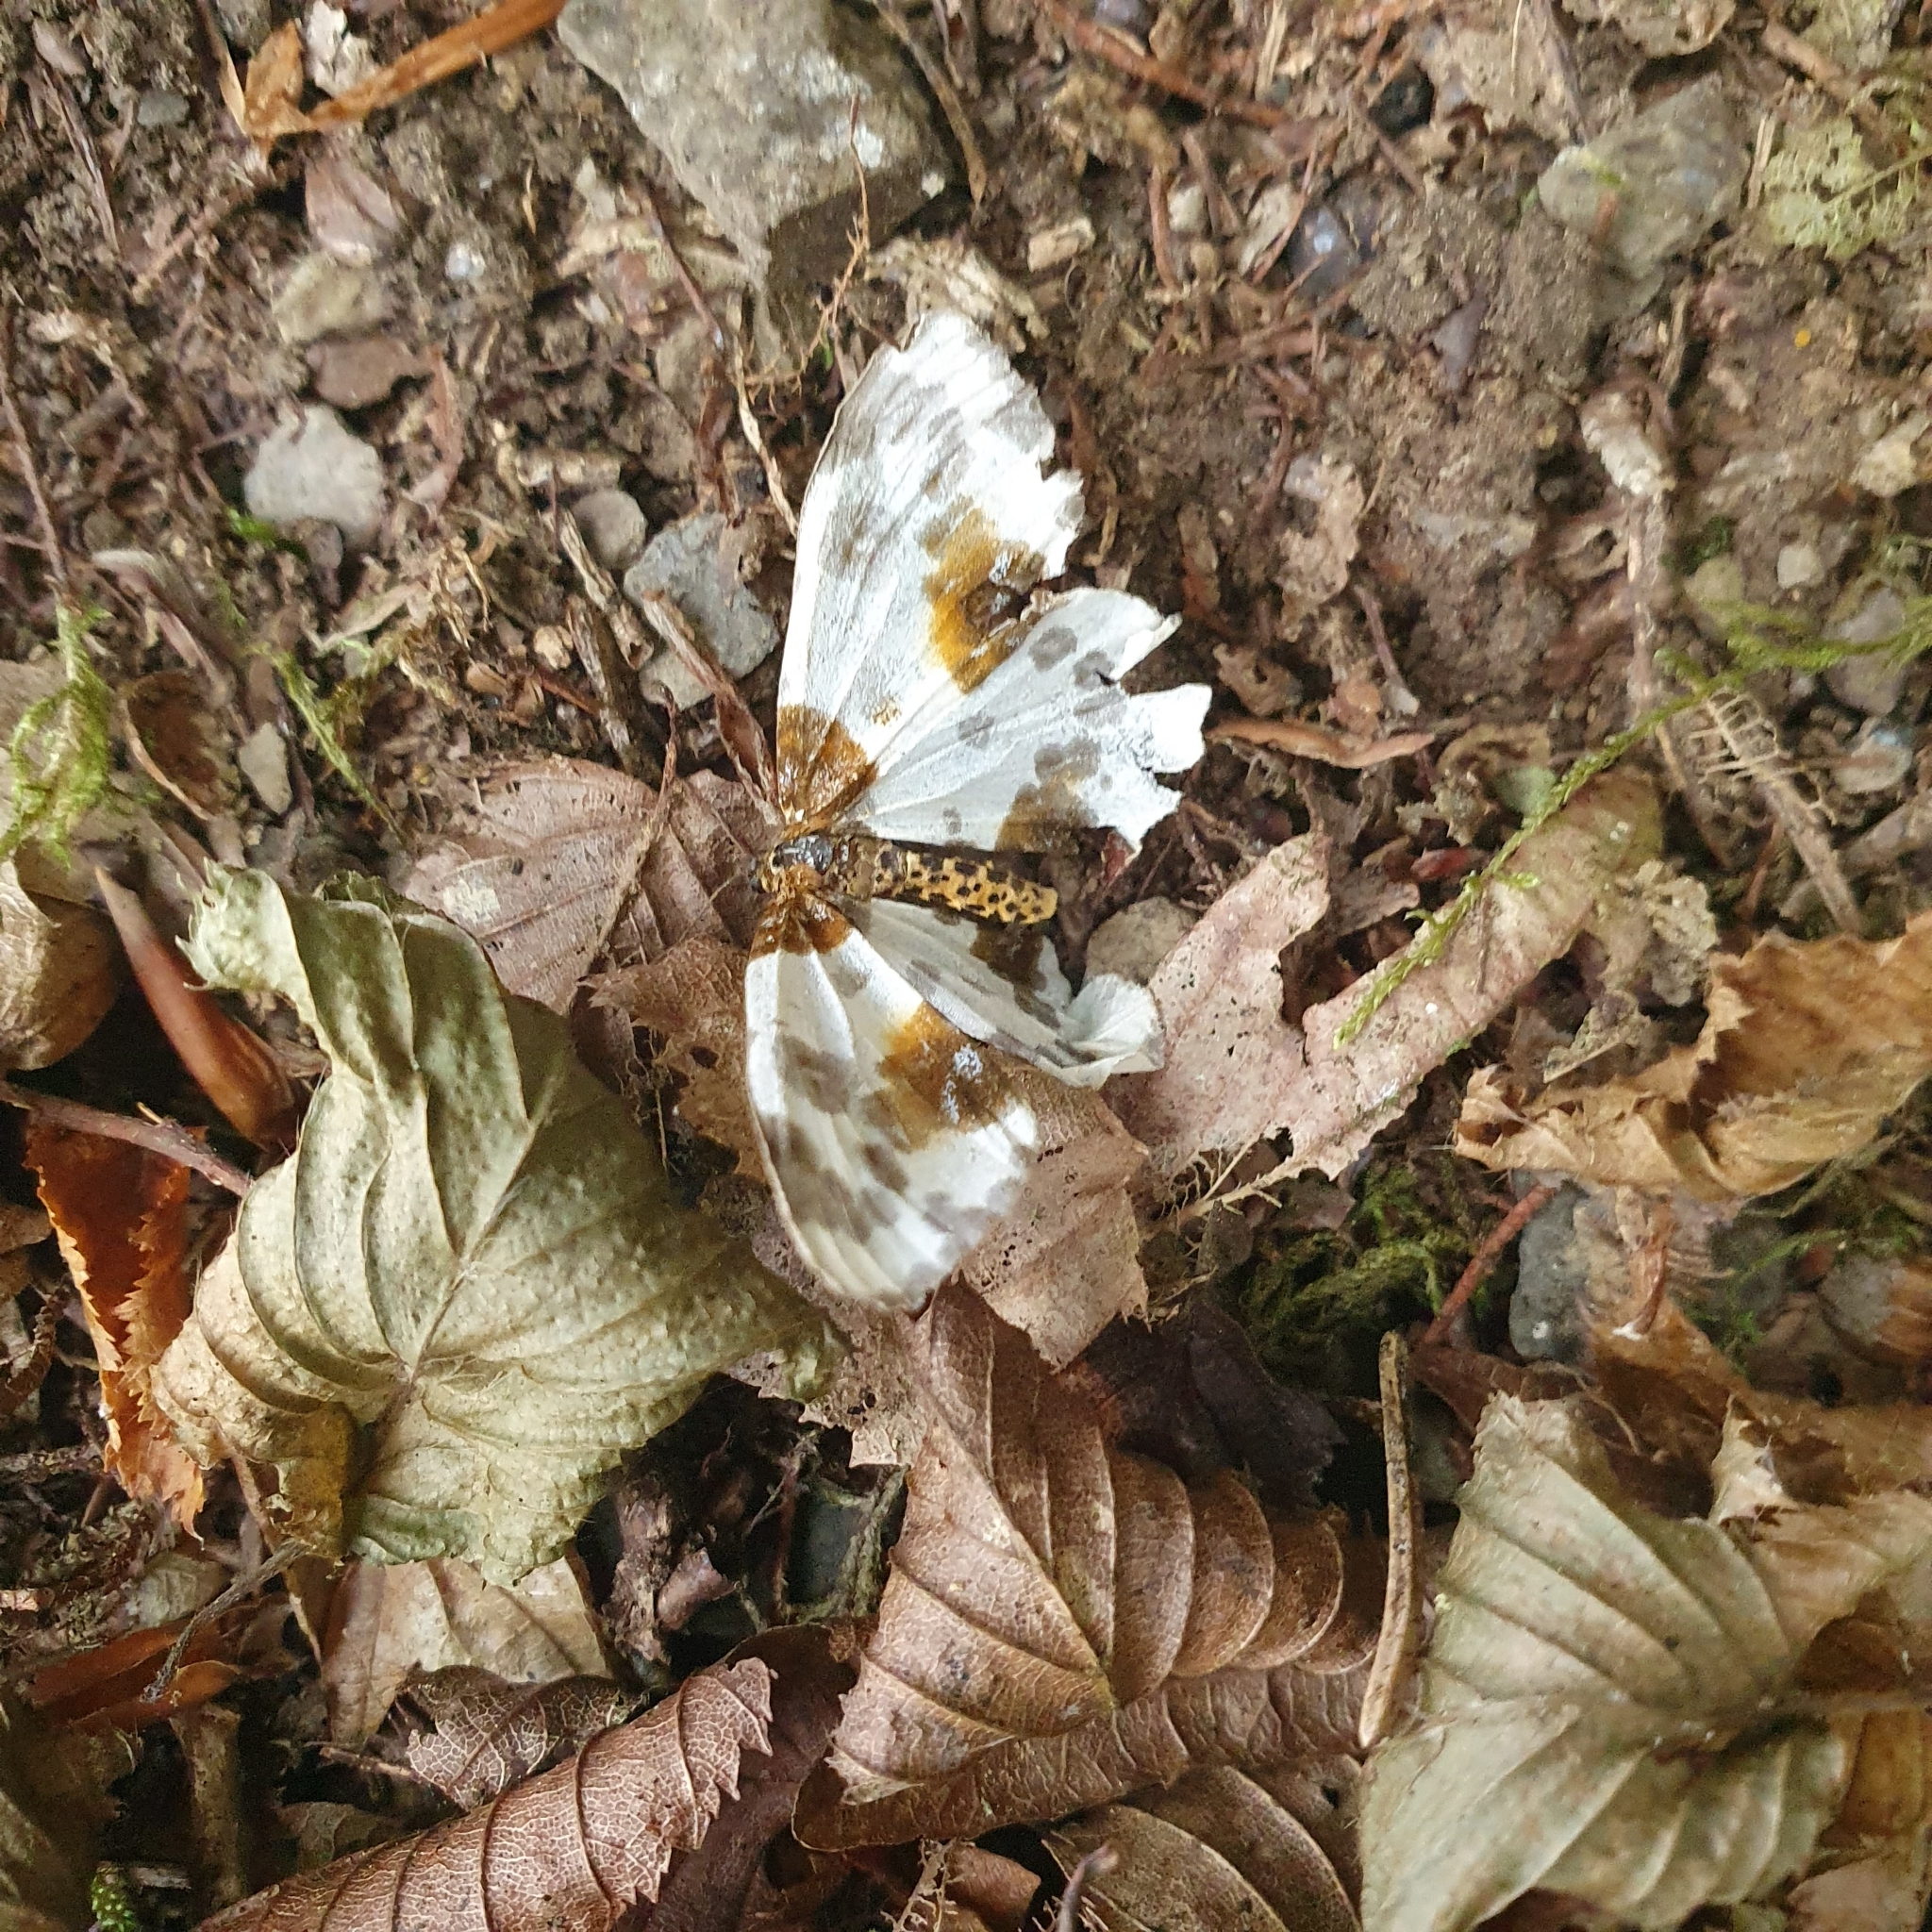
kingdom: Animalia
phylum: Arthropoda
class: Insecta
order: Lepidoptera
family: Geometridae
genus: Abraxas
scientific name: Abraxas sylvata
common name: Clouded magpie
